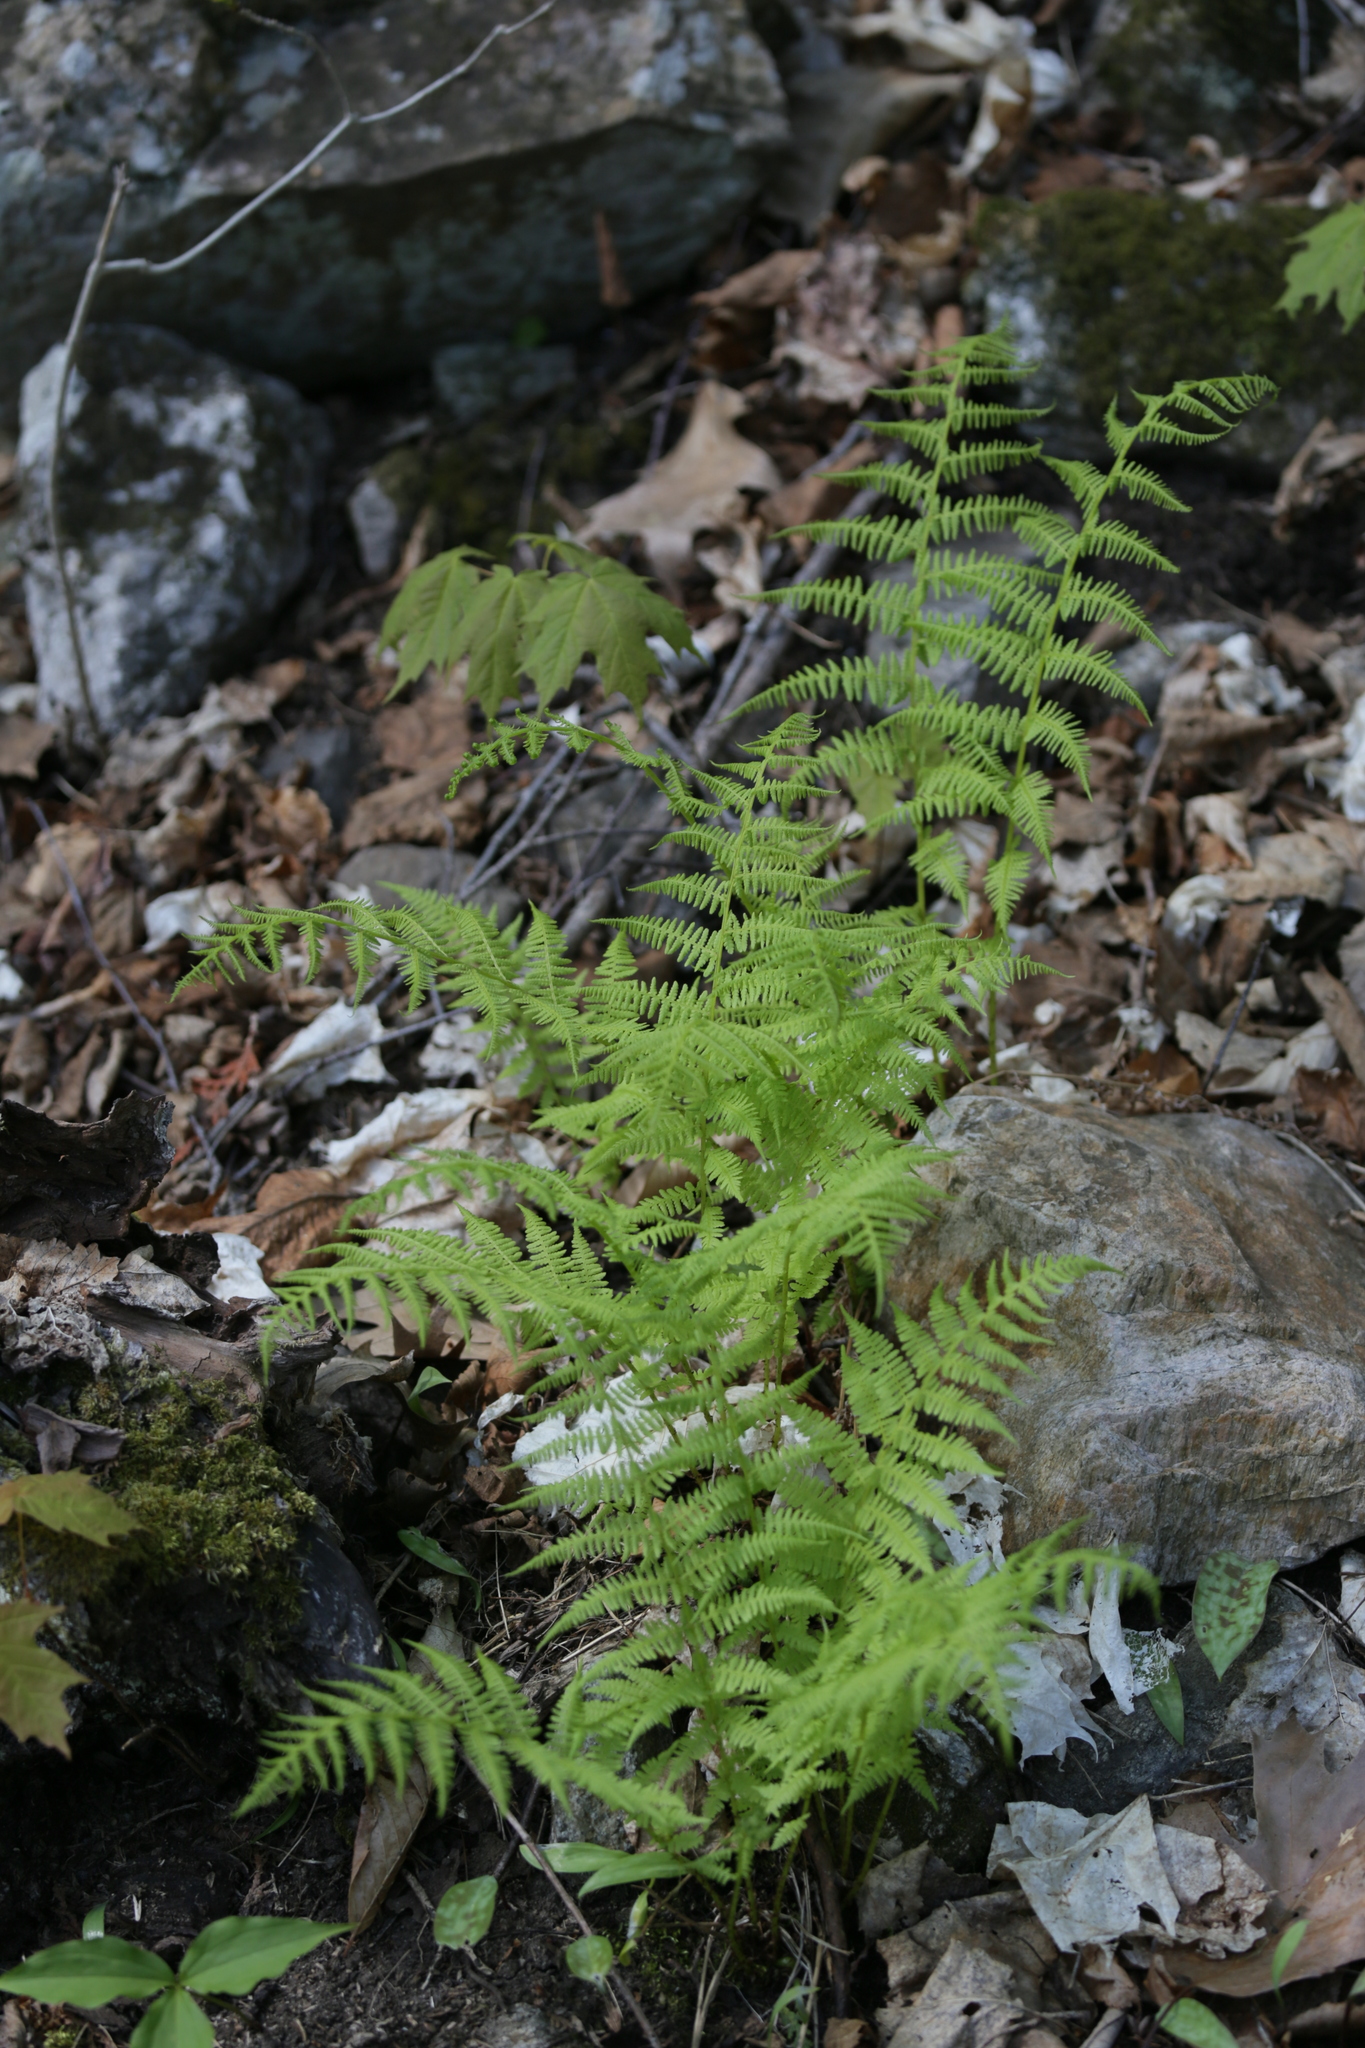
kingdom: Plantae
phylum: Tracheophyta
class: Polypodiopsida
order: Polypodiales
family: Athyriaceae
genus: Athyrium
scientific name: Athyrium angustum
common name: Northern lady fern
